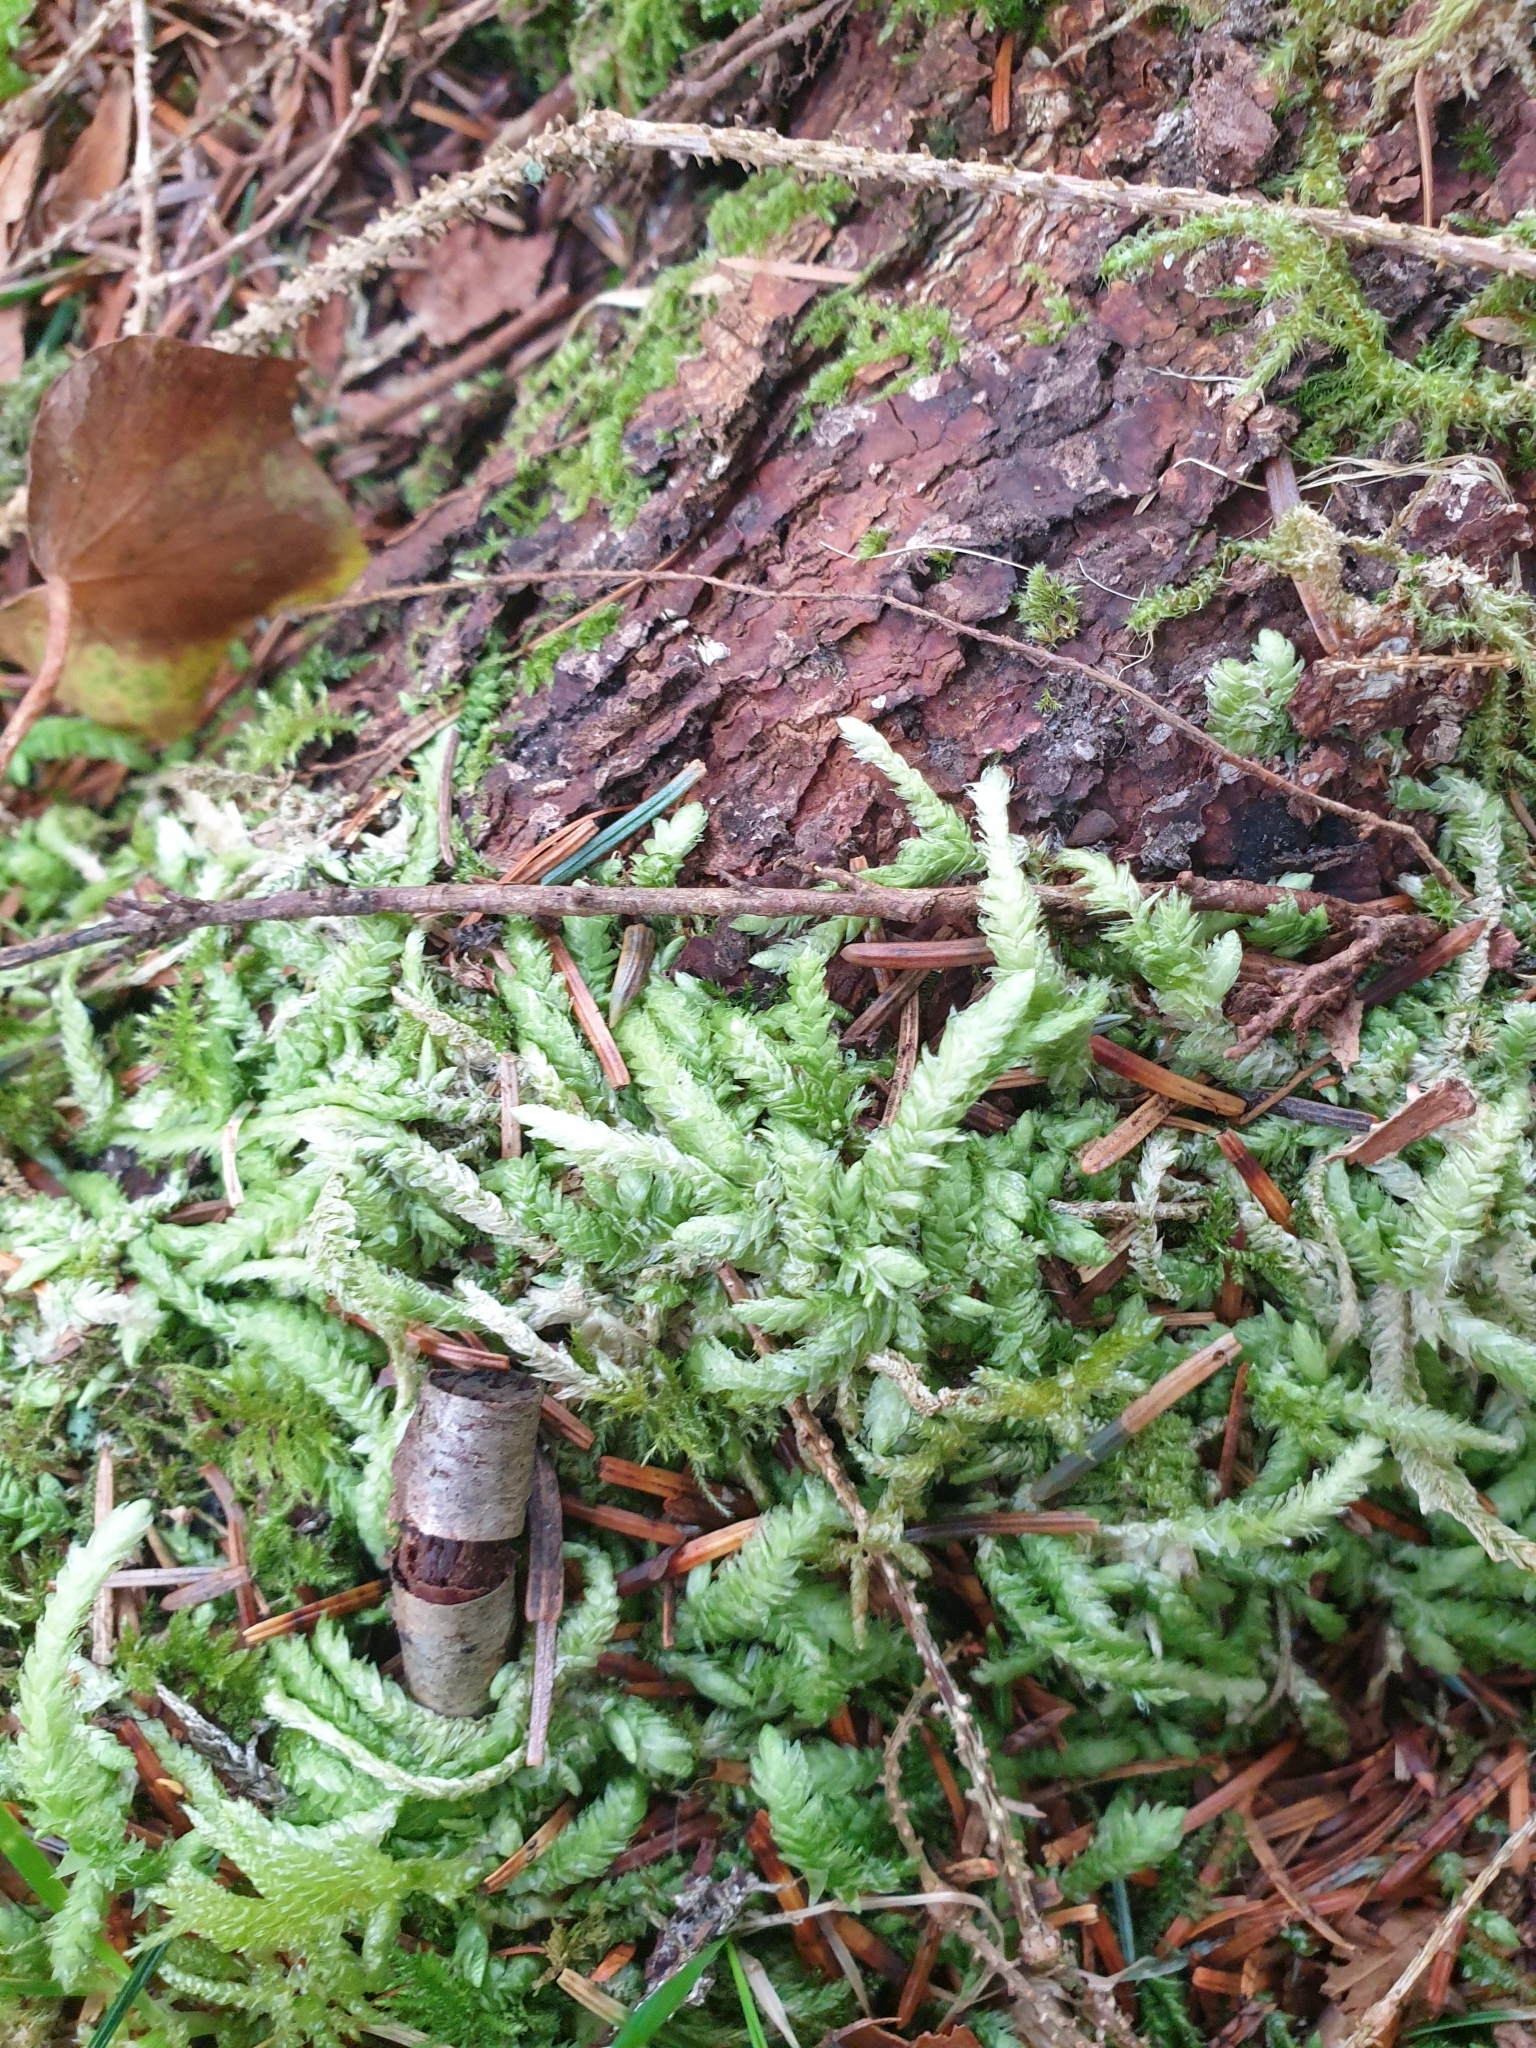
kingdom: Plantae
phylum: Bryophyta
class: Bryopsida
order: Hypnales
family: Plagiotheciaceae
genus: Plagiothecium
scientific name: Plagiothecium undulatum
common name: Waved silk-moss
